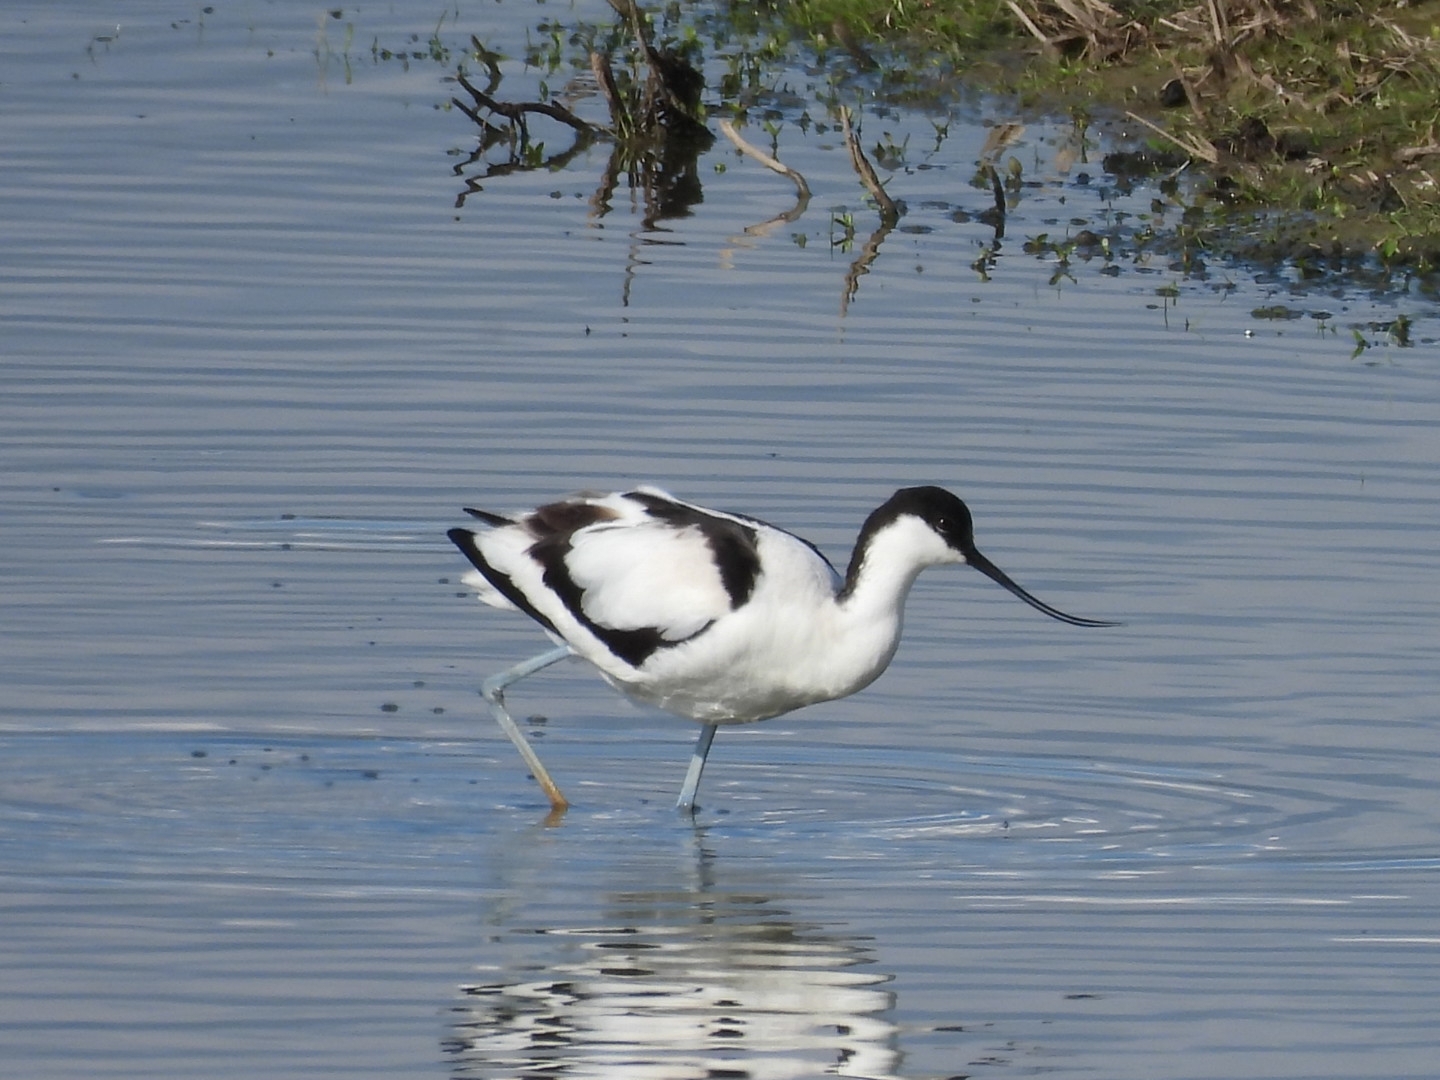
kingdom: Animalia
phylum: Chordata
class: Aves
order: Charadriiformes
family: Recurvirostridae
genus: Recurvirostra
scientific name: Recurvirostra avosetta
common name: Pied avocet
